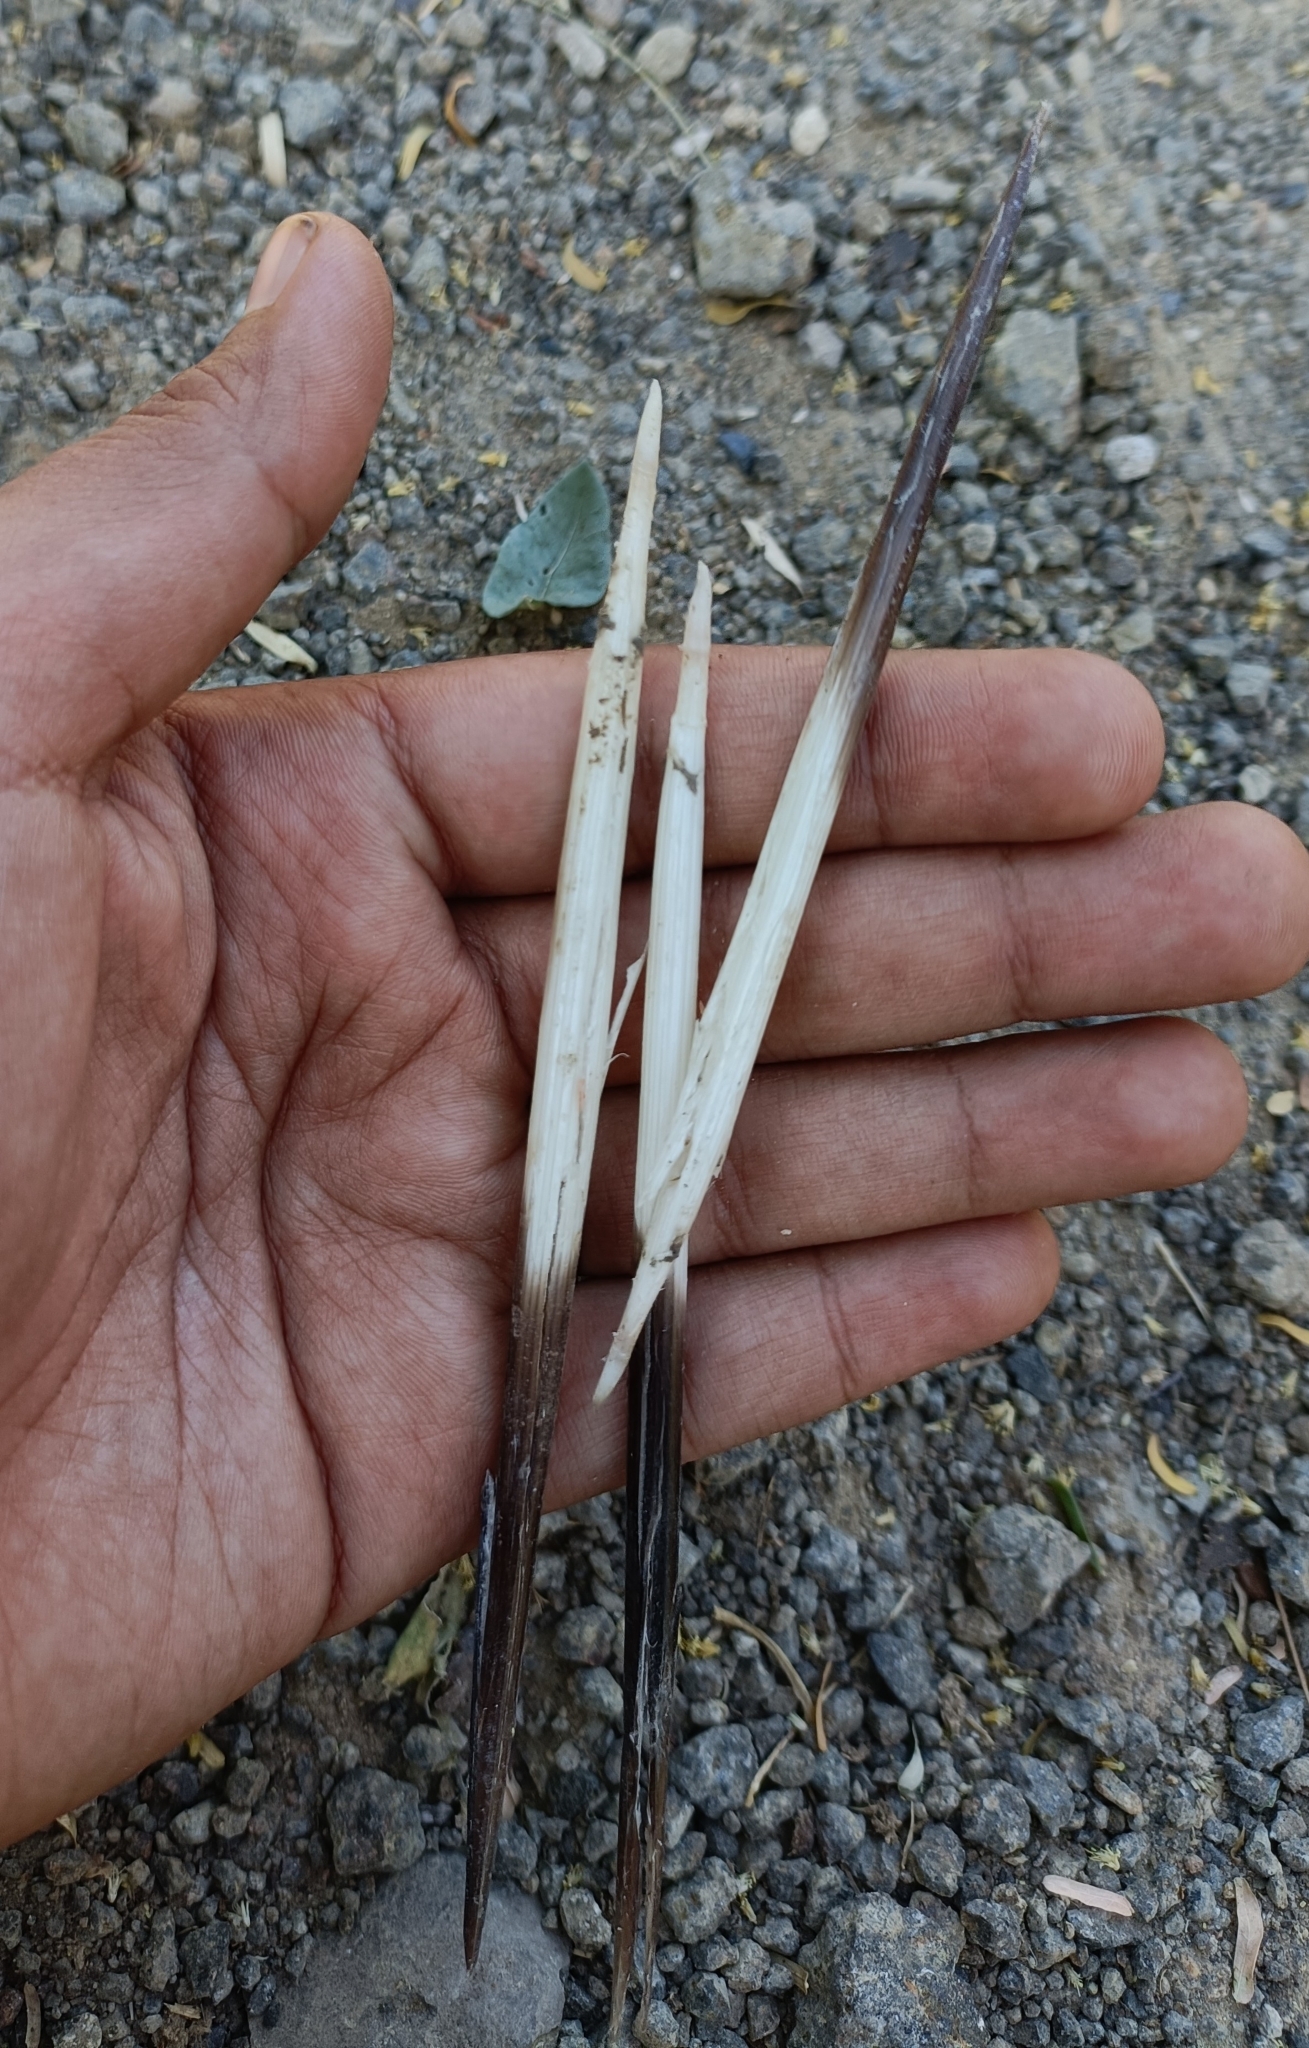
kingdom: Animalia
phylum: Chordata
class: Mammalia
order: Rodentia
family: Hystricidae
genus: Hystrix
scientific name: Hystrix indica
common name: Indian crested porcupine
